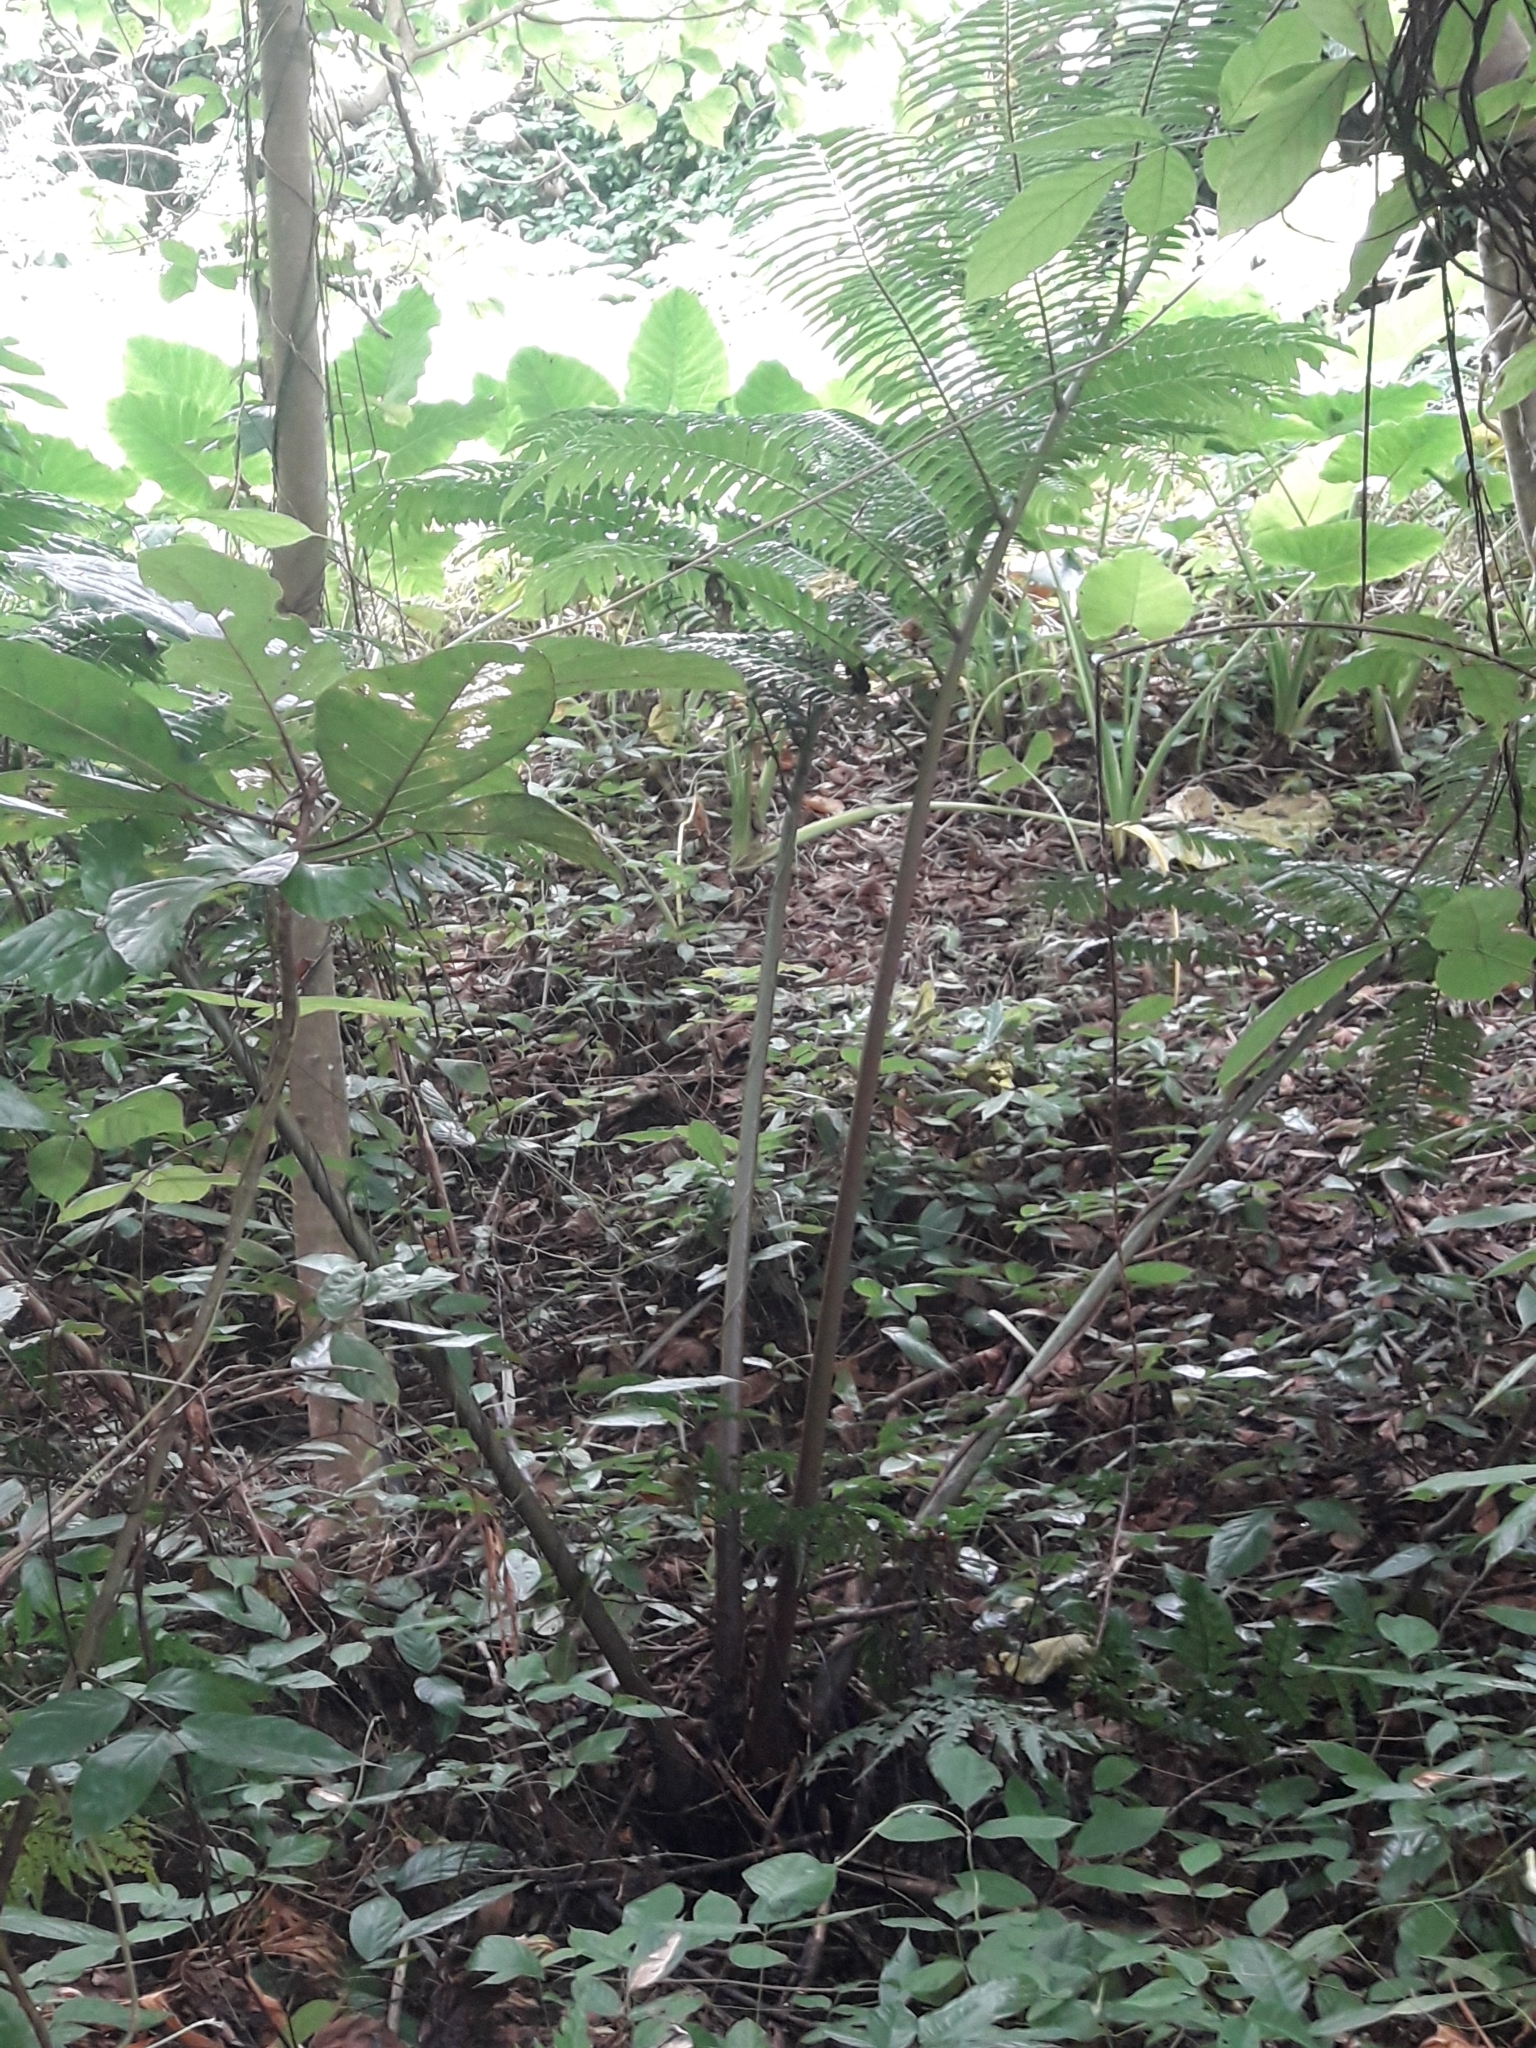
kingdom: Plantae
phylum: Tracheophyta
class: Polypodiopsida
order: Marattiales
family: Marattiaceae
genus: Angiopteris
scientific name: Angiopteris evecta
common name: Mule's-foot fern
